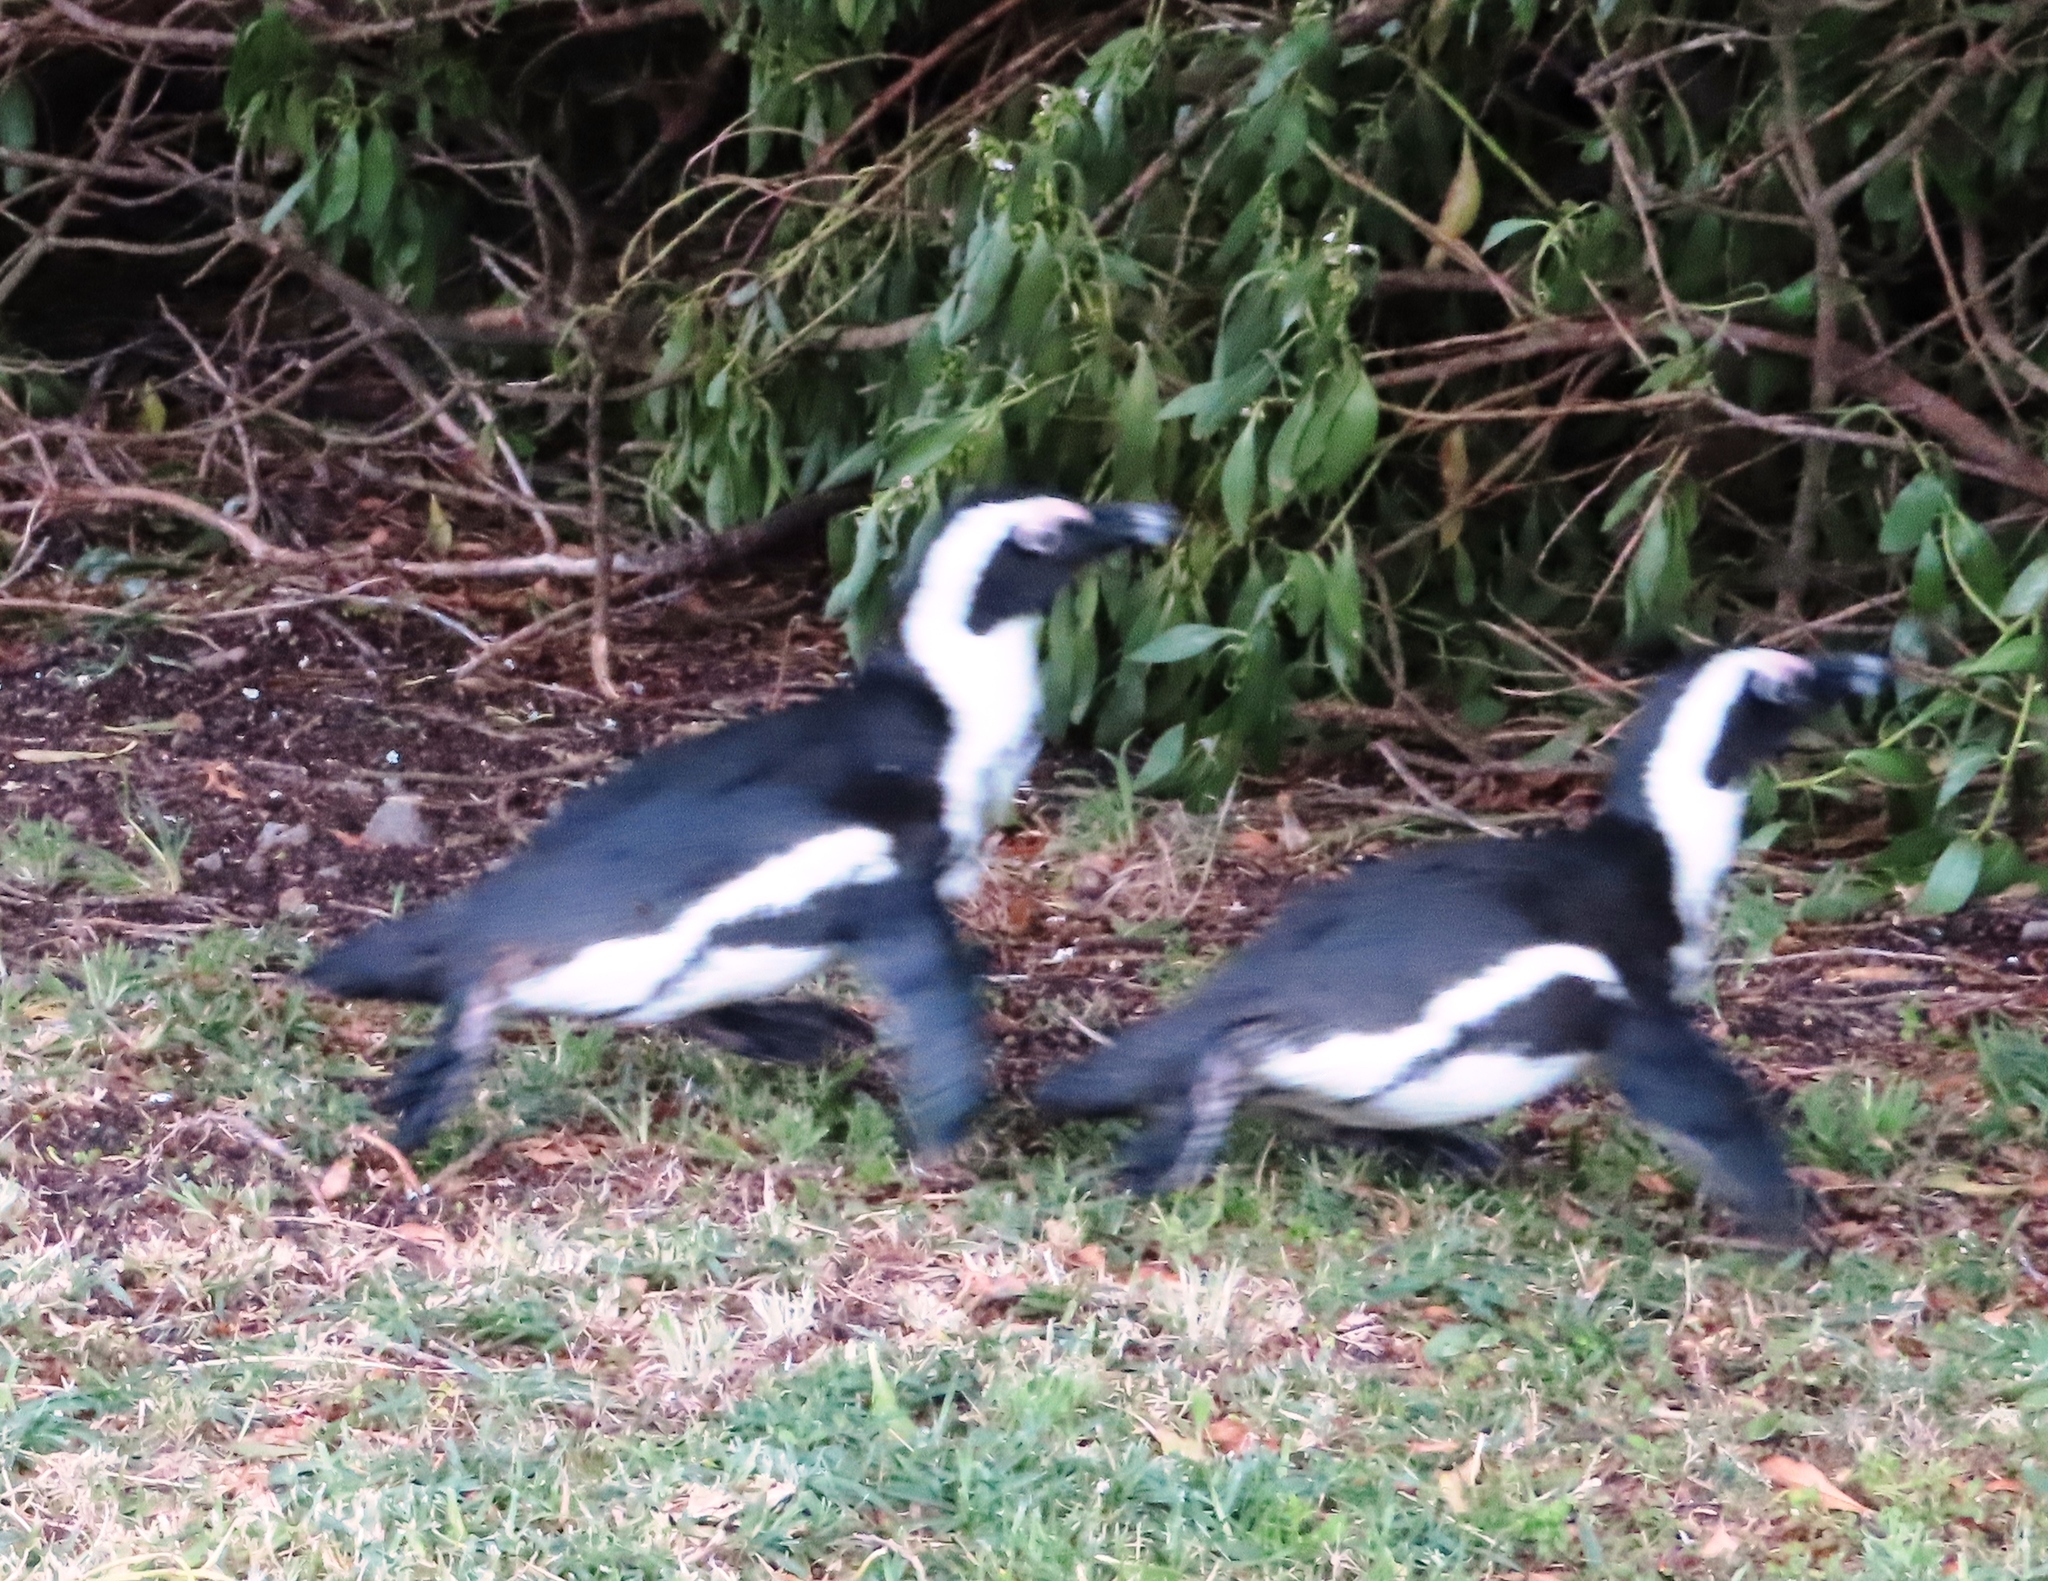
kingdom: Animalia
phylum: Chordata
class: Aves
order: Sphenisciformes
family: Spheniscidae
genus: Spheniscus
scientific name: Spheniscus demersus
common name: African penguin
